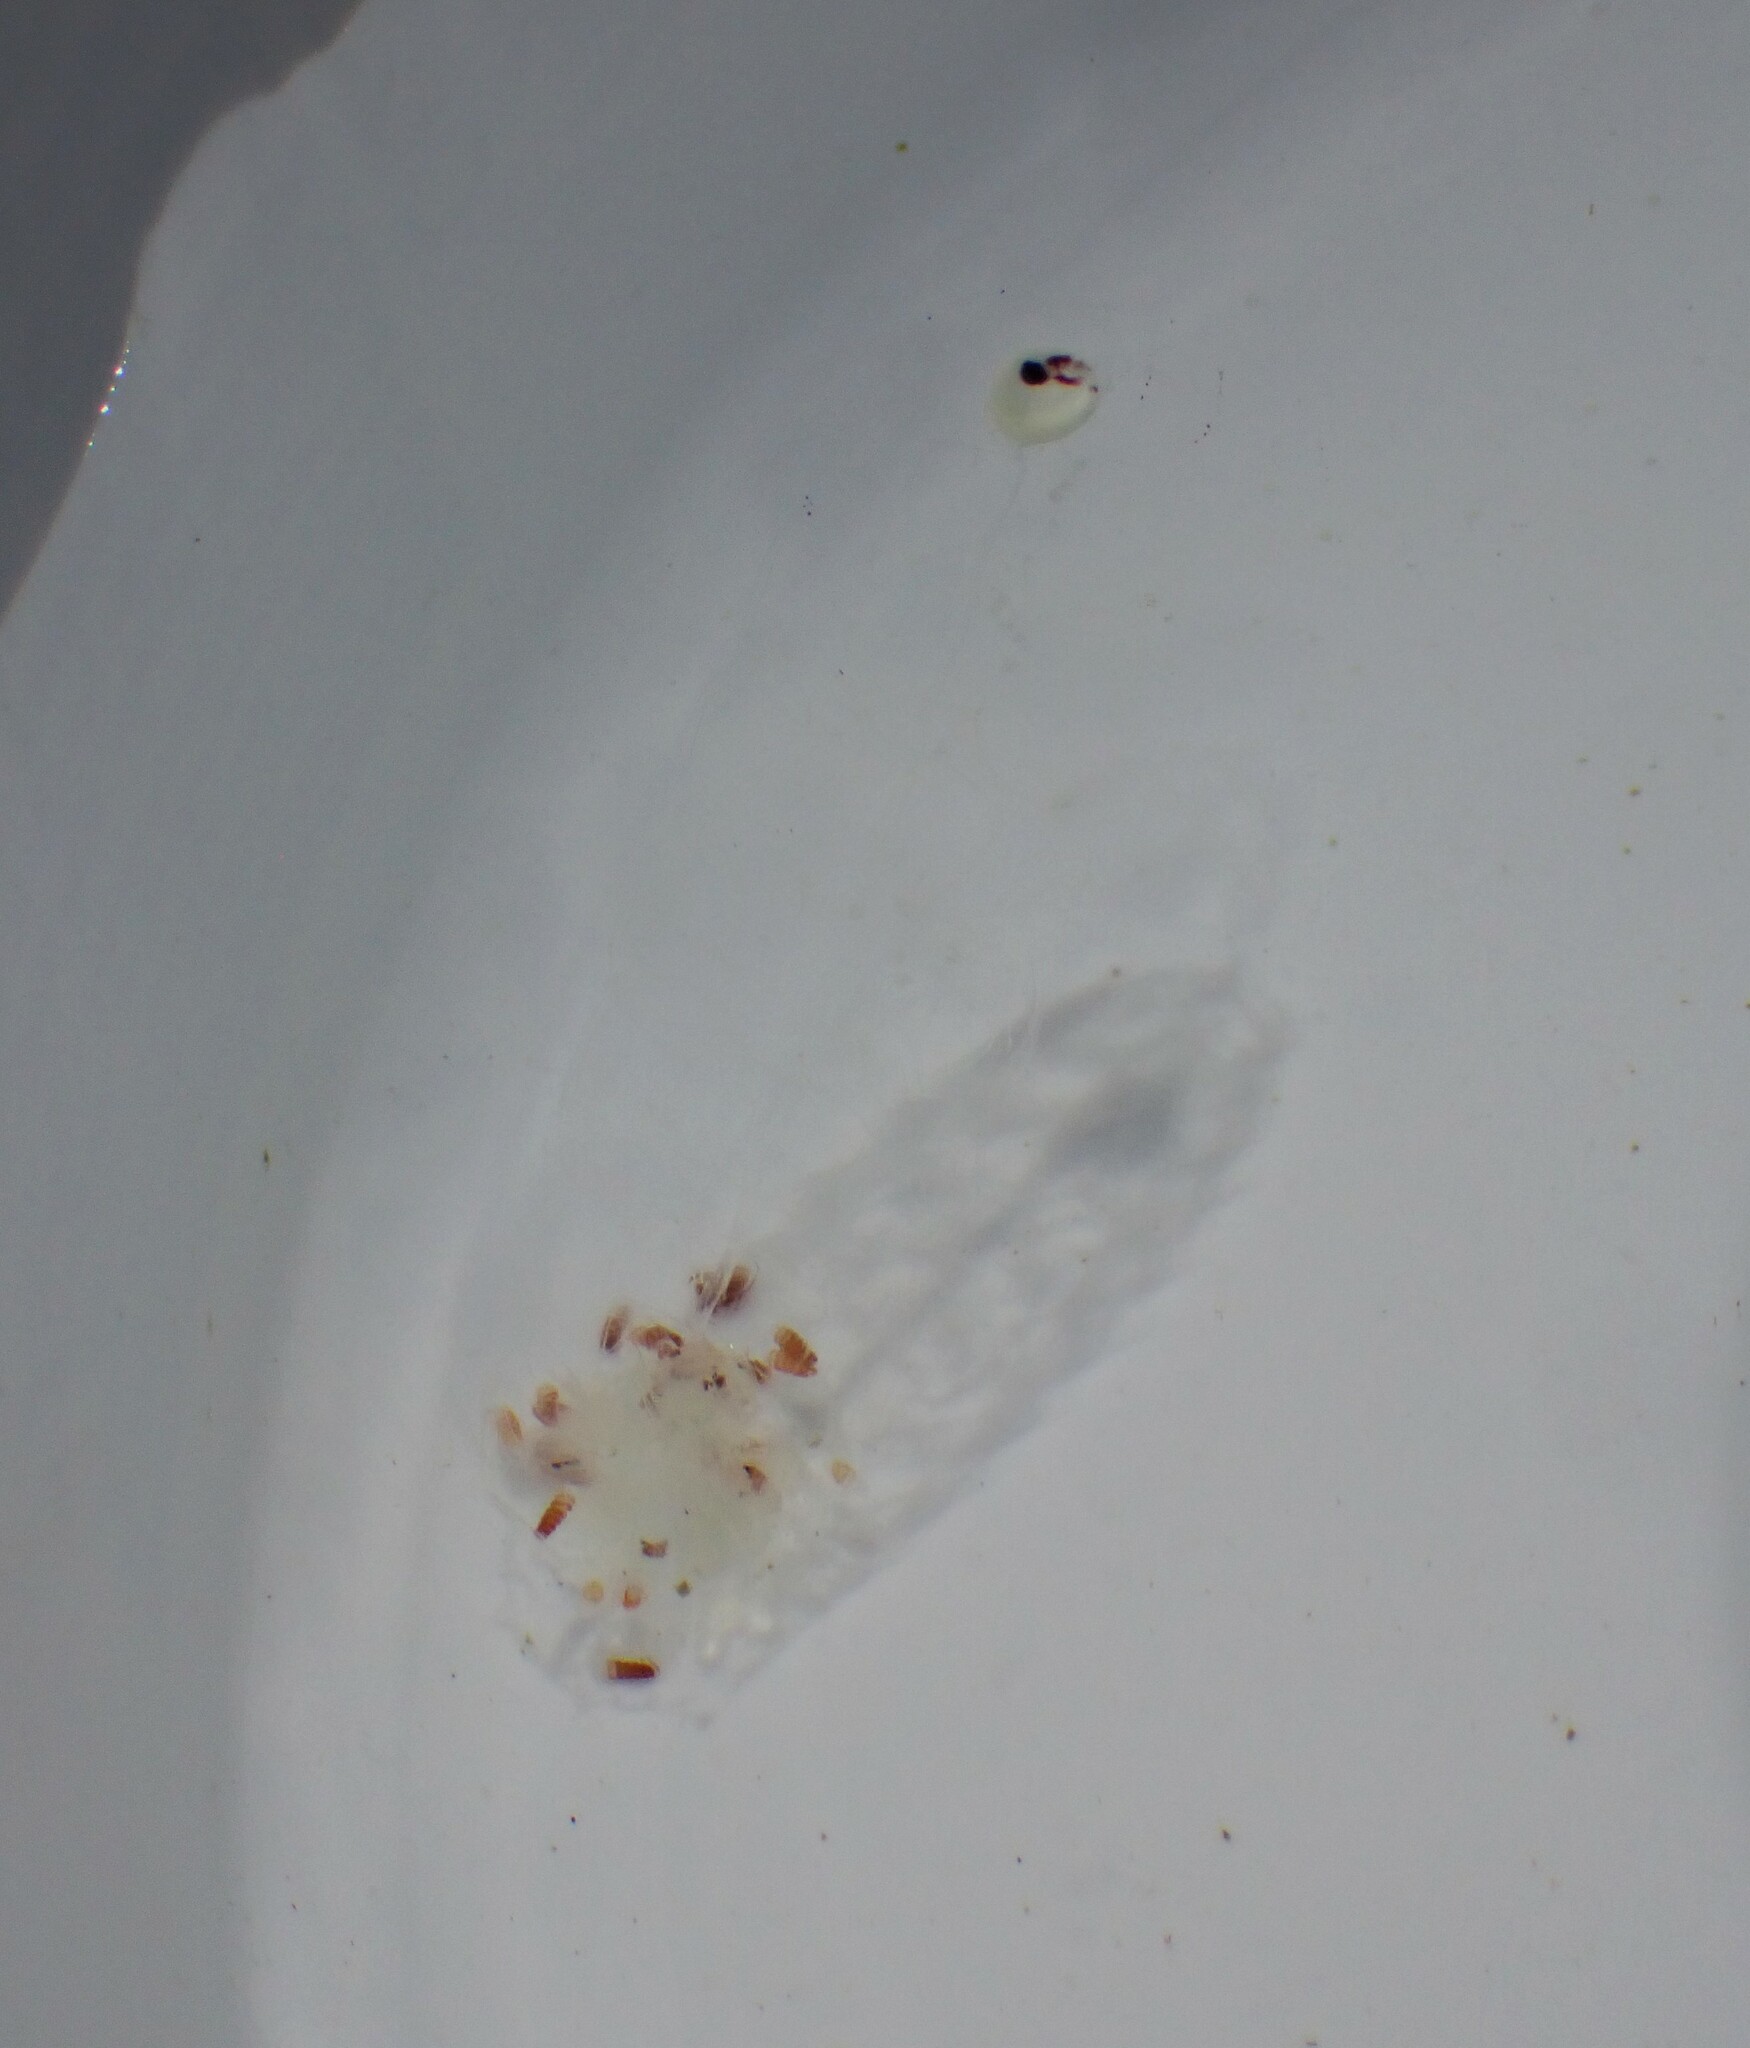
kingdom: Animalia
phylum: Cnidaria
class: Hydrozoa
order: Siphonophorae
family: Agalmatidae
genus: Nanomia
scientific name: Nanomia bijuga
